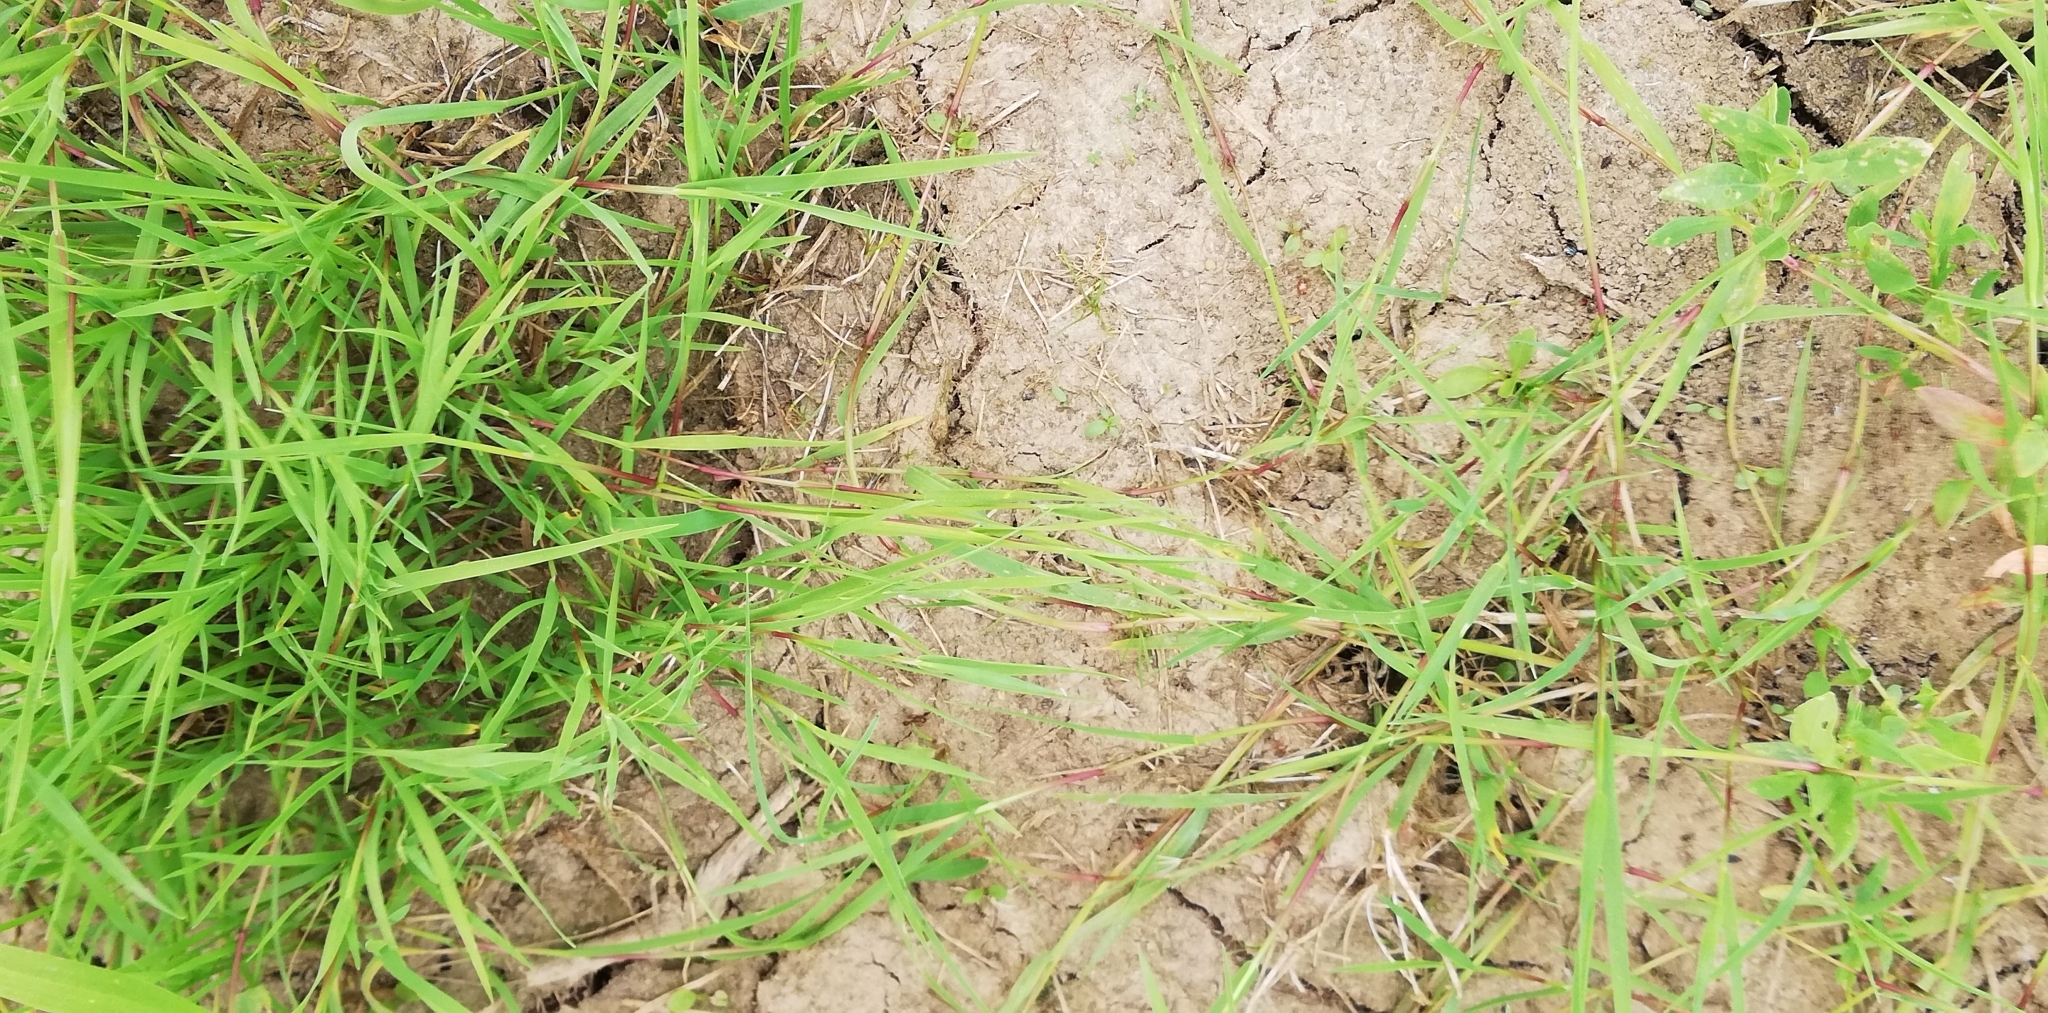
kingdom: Plantae
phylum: Tracheophyta
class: Liliopsida
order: Poales
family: Poaceae
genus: Agrostis
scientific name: Agrostis stolonifera
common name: Creeping bentgrass
